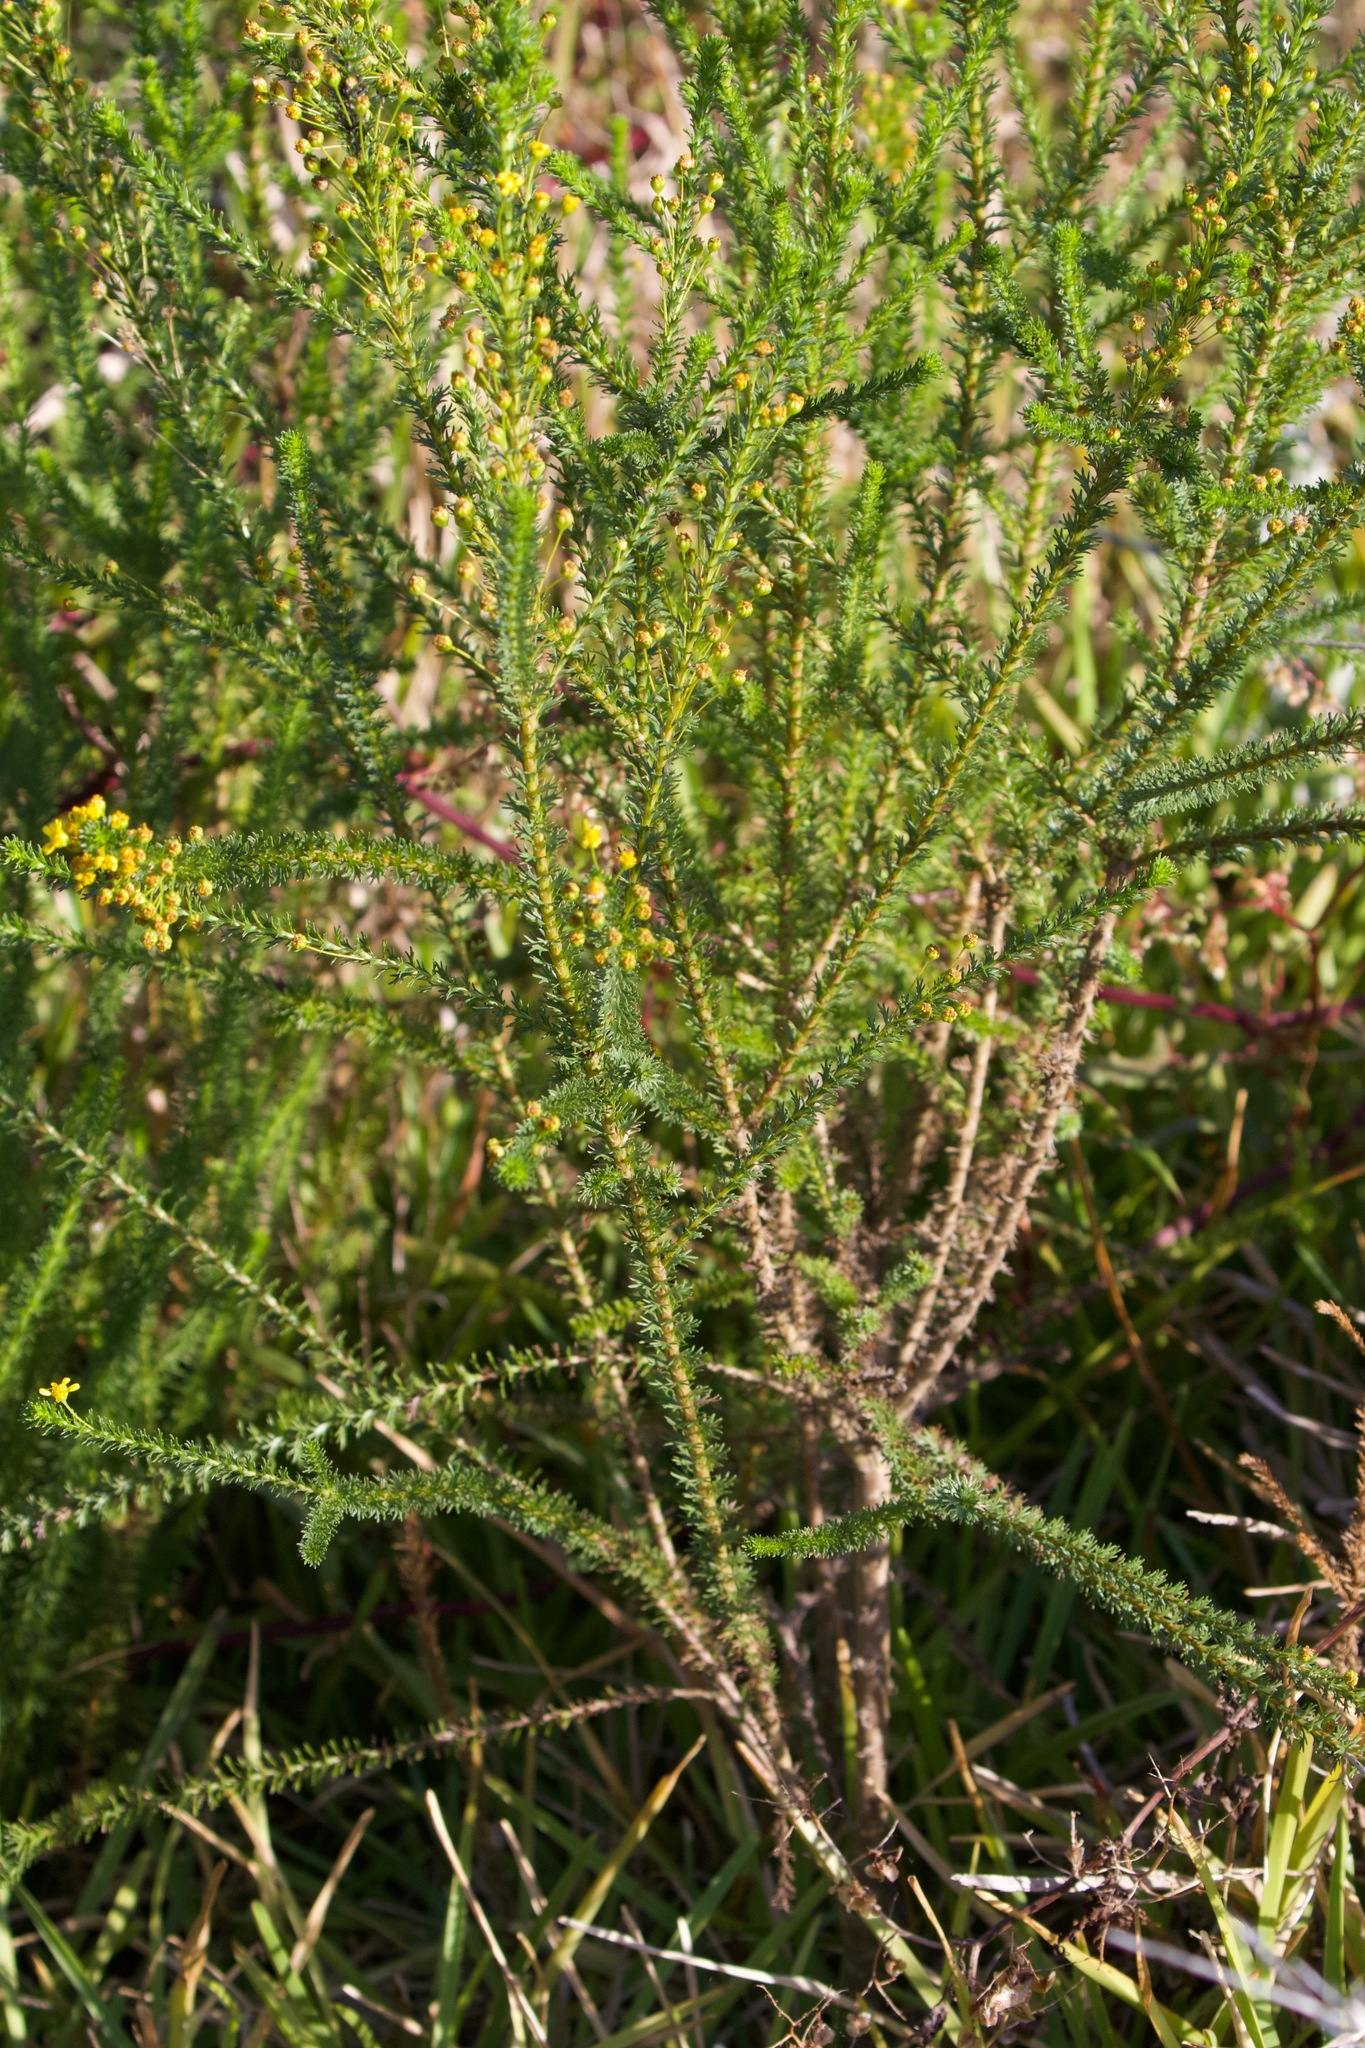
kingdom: Plantae
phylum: Tracheophyta
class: Magnoliopsida
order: Asterales
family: Asteraceae
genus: Euryops
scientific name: Euryops virgineus
